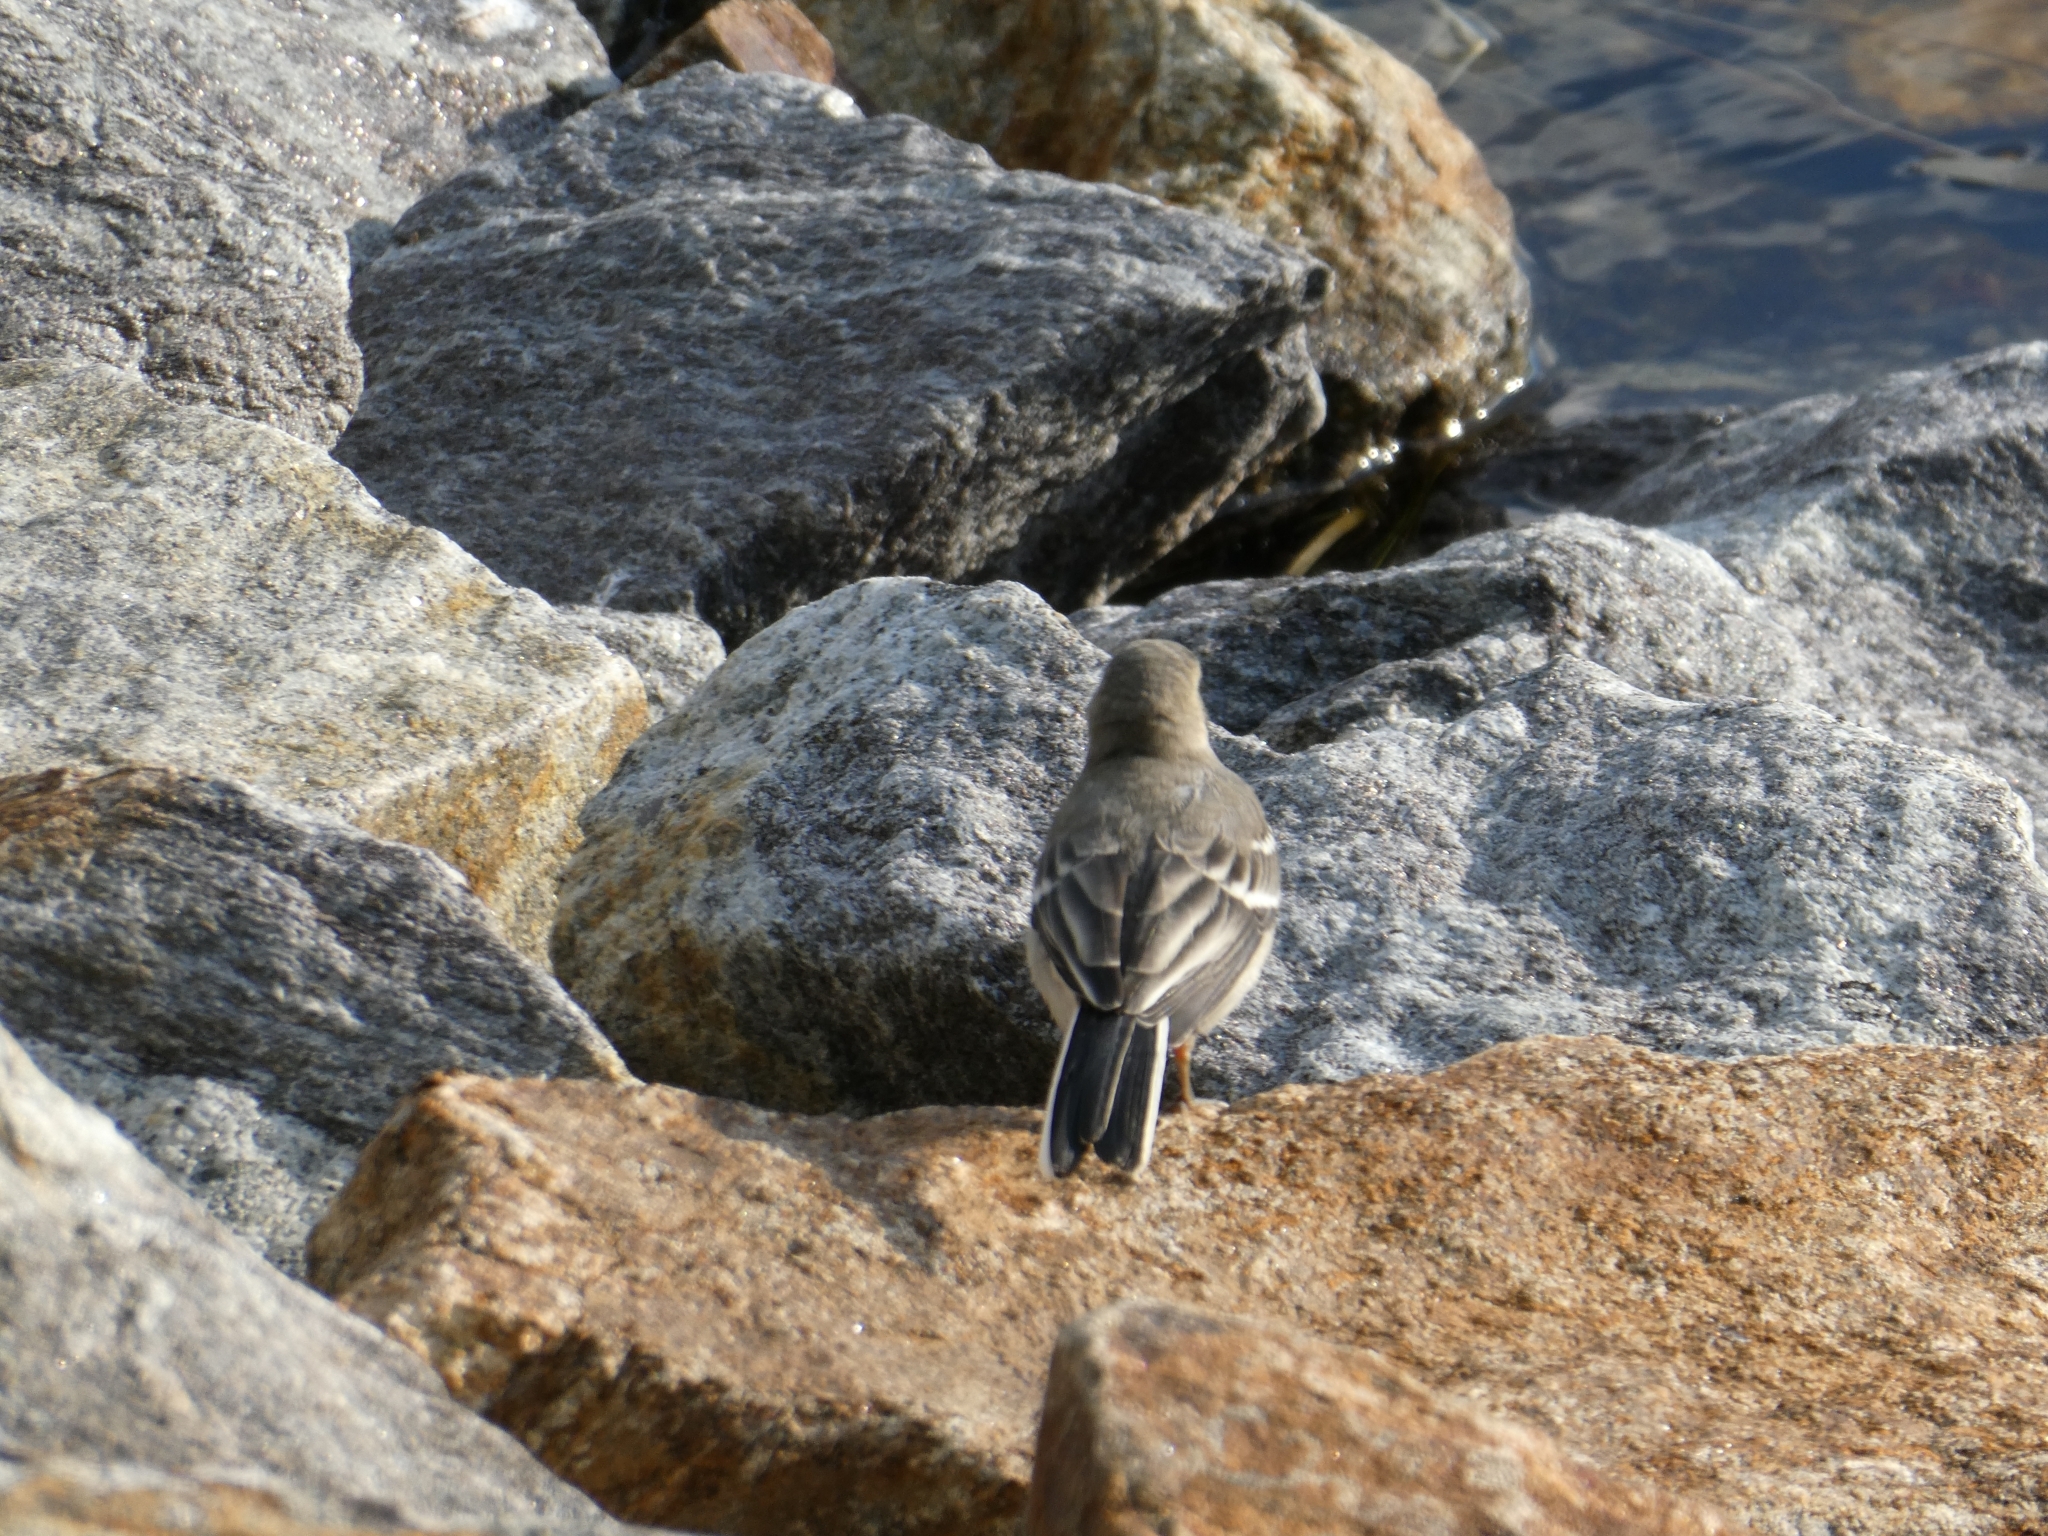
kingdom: Animalia
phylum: Chordata
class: Aves
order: Passeriformes
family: Motacillidae
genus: Motacilla
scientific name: Motacilla alba
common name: White wagtail
